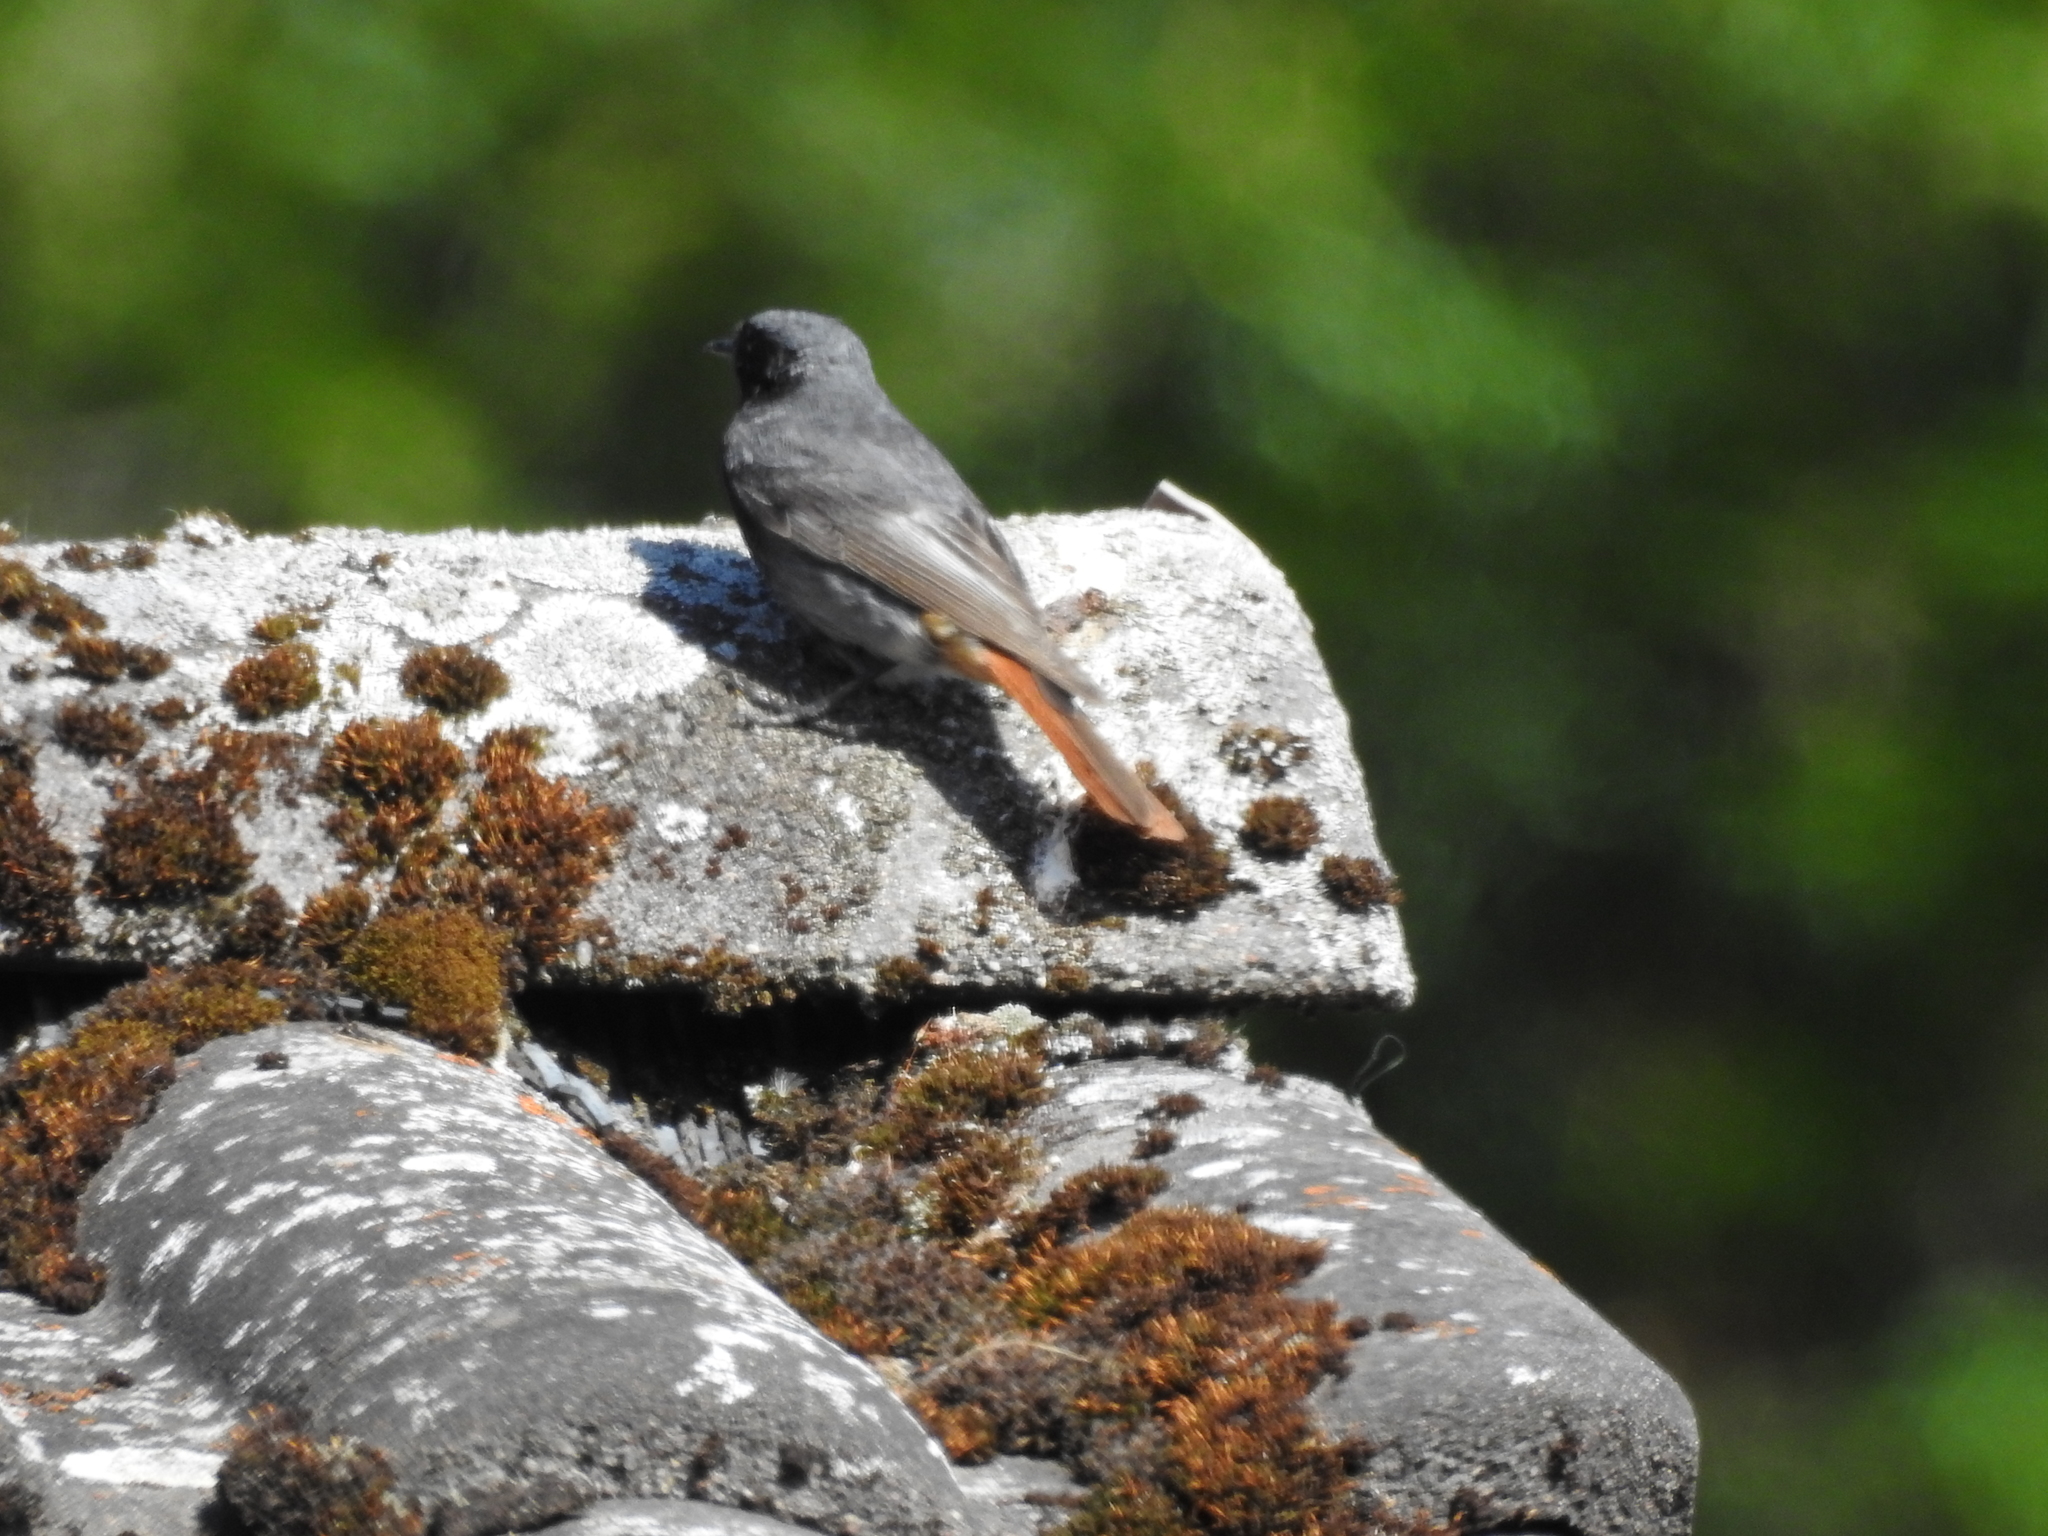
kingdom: Animalia
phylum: Chordata
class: Aves
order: Passeriformes
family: Muscicapidae
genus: Phoenicurus
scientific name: Phoenicurus ochruros
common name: Black redstart
